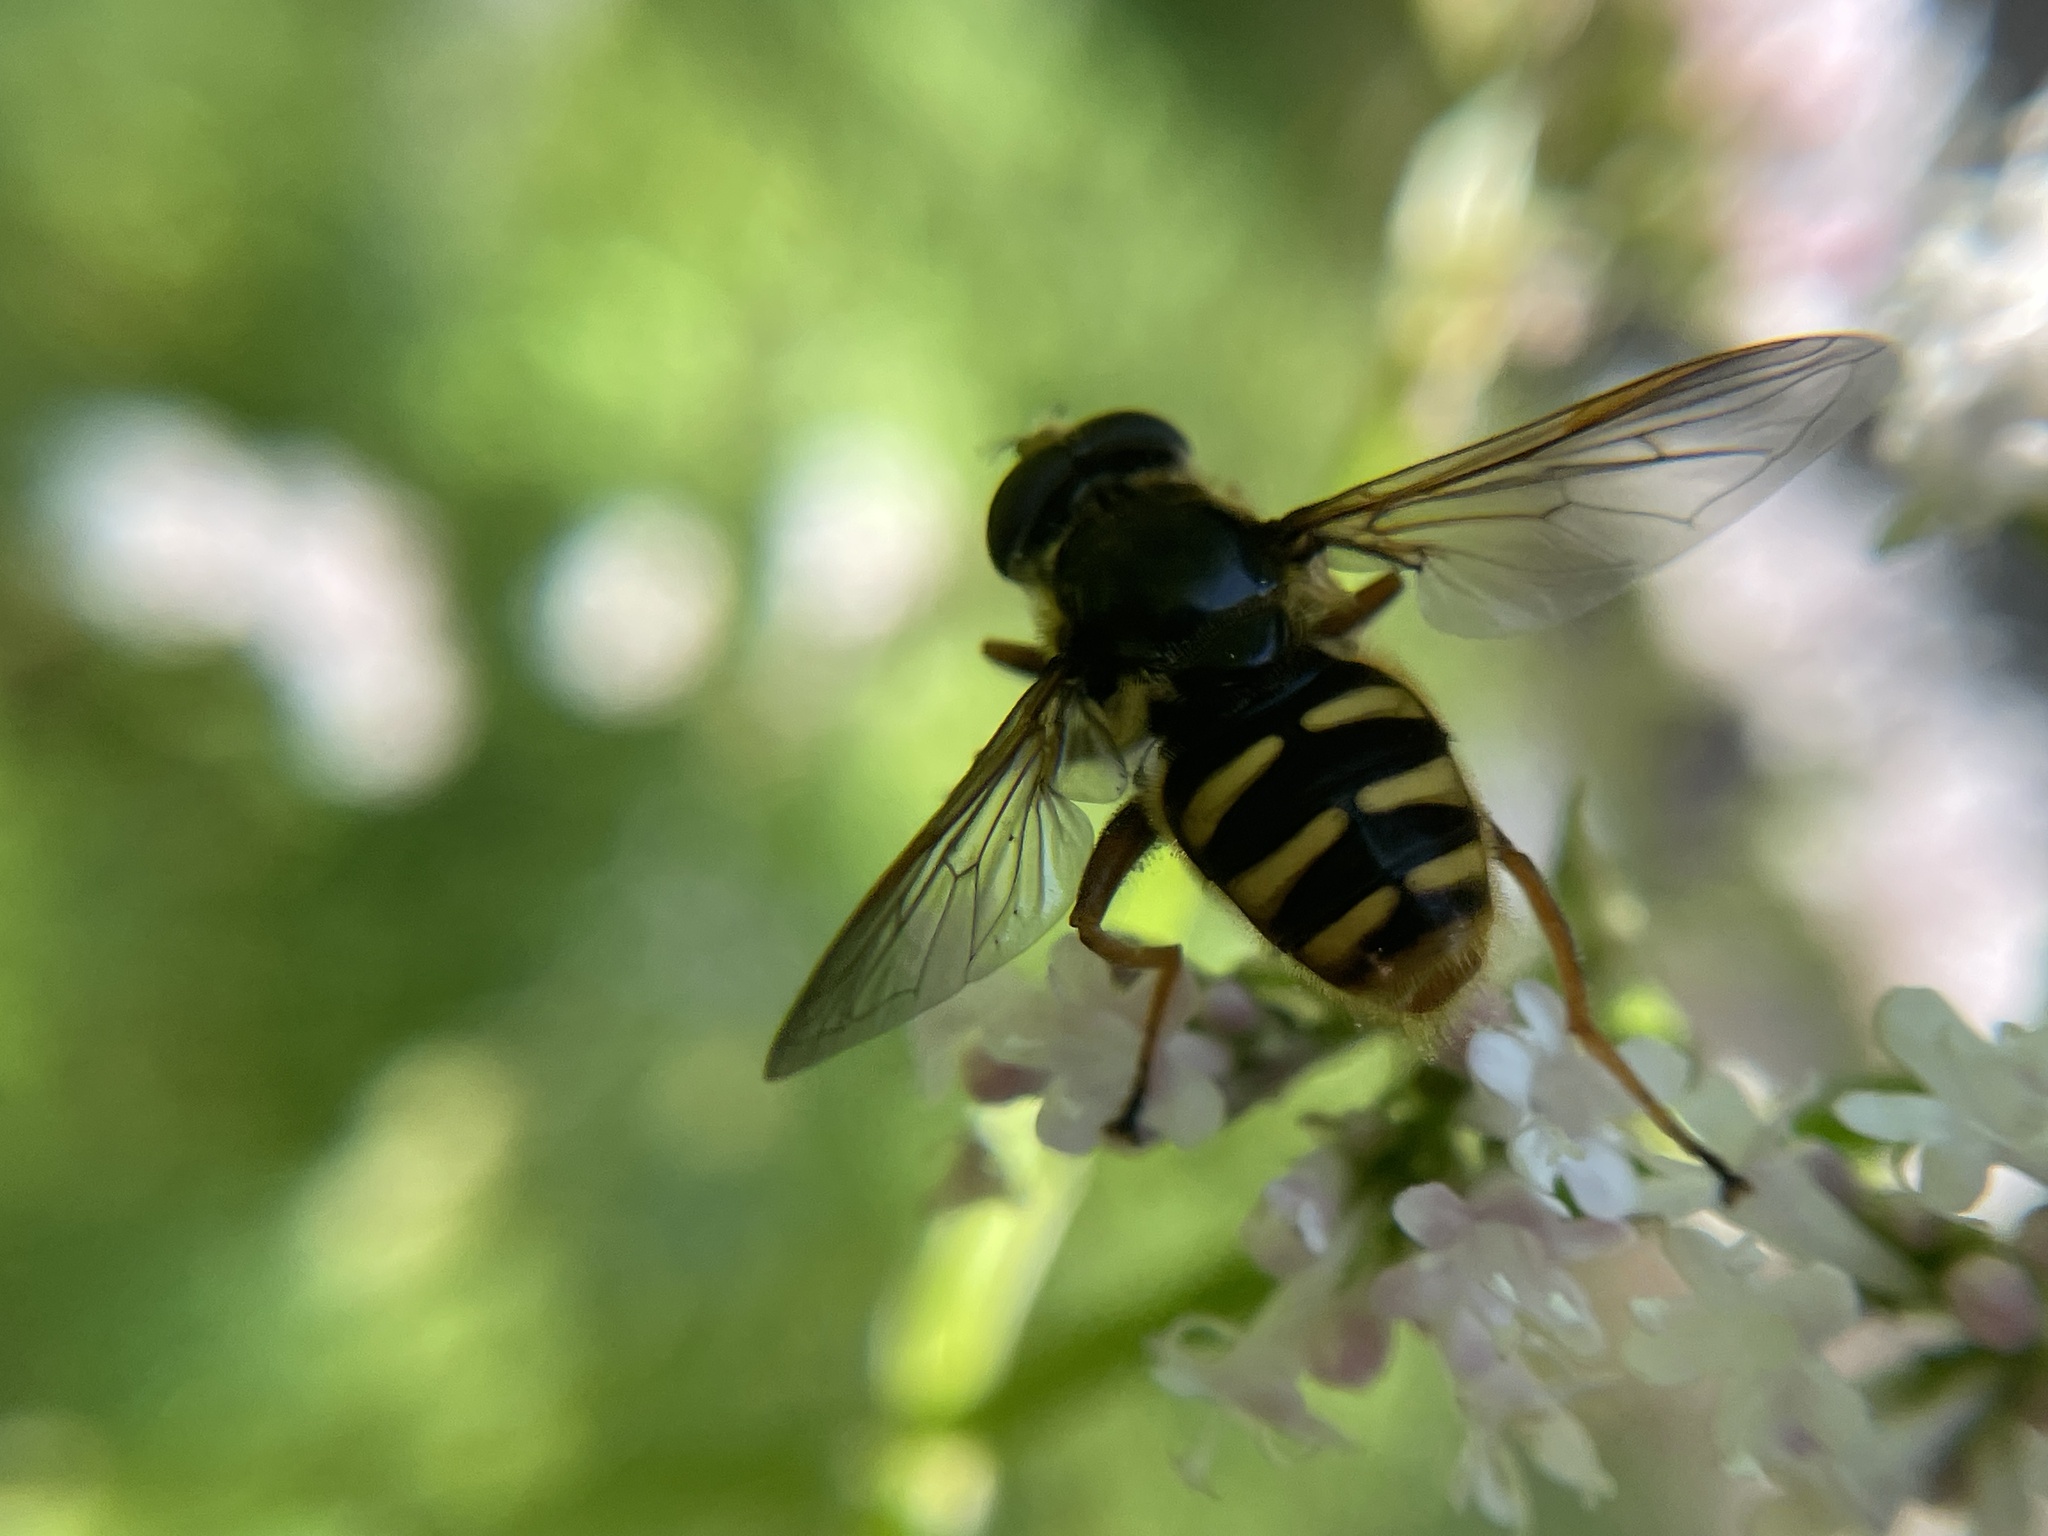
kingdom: Animalia
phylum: Arthropoda
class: Insecta
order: Diptera
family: Syrphidae
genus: Sericomyia
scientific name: Sericomyia silentis
